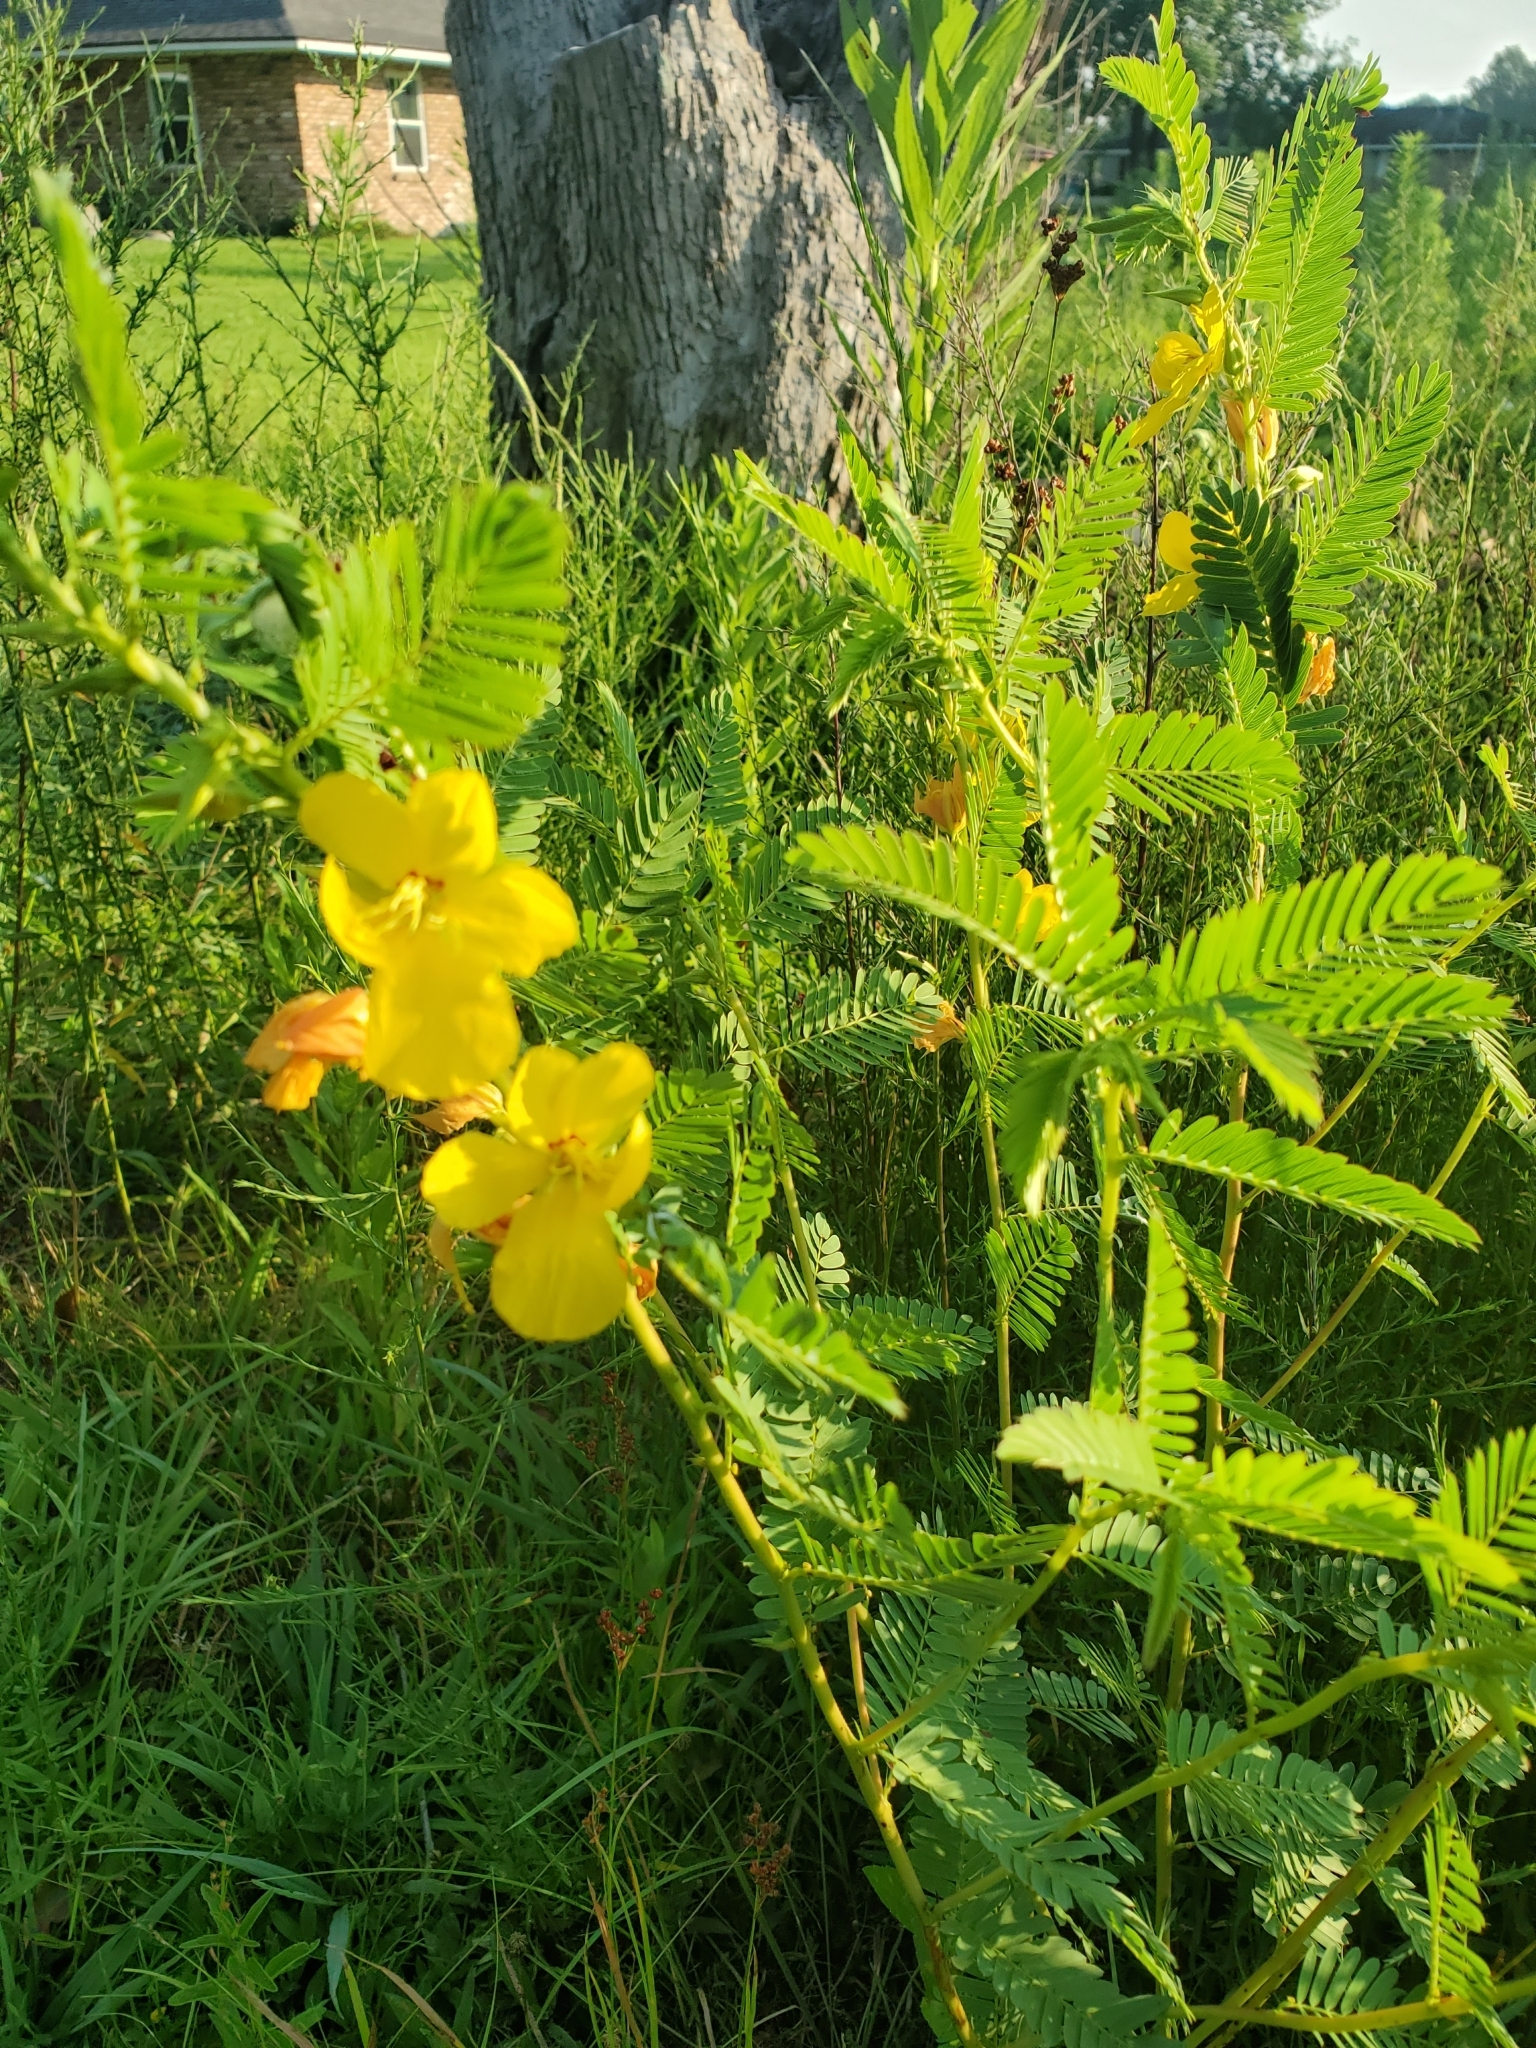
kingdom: Plantae
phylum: Tracheophyta
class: Magnoliopsida
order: Fabales
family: Fabaceae
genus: Chamaecrista
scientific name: Chamaecrista fasciculata
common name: Golden cassia
